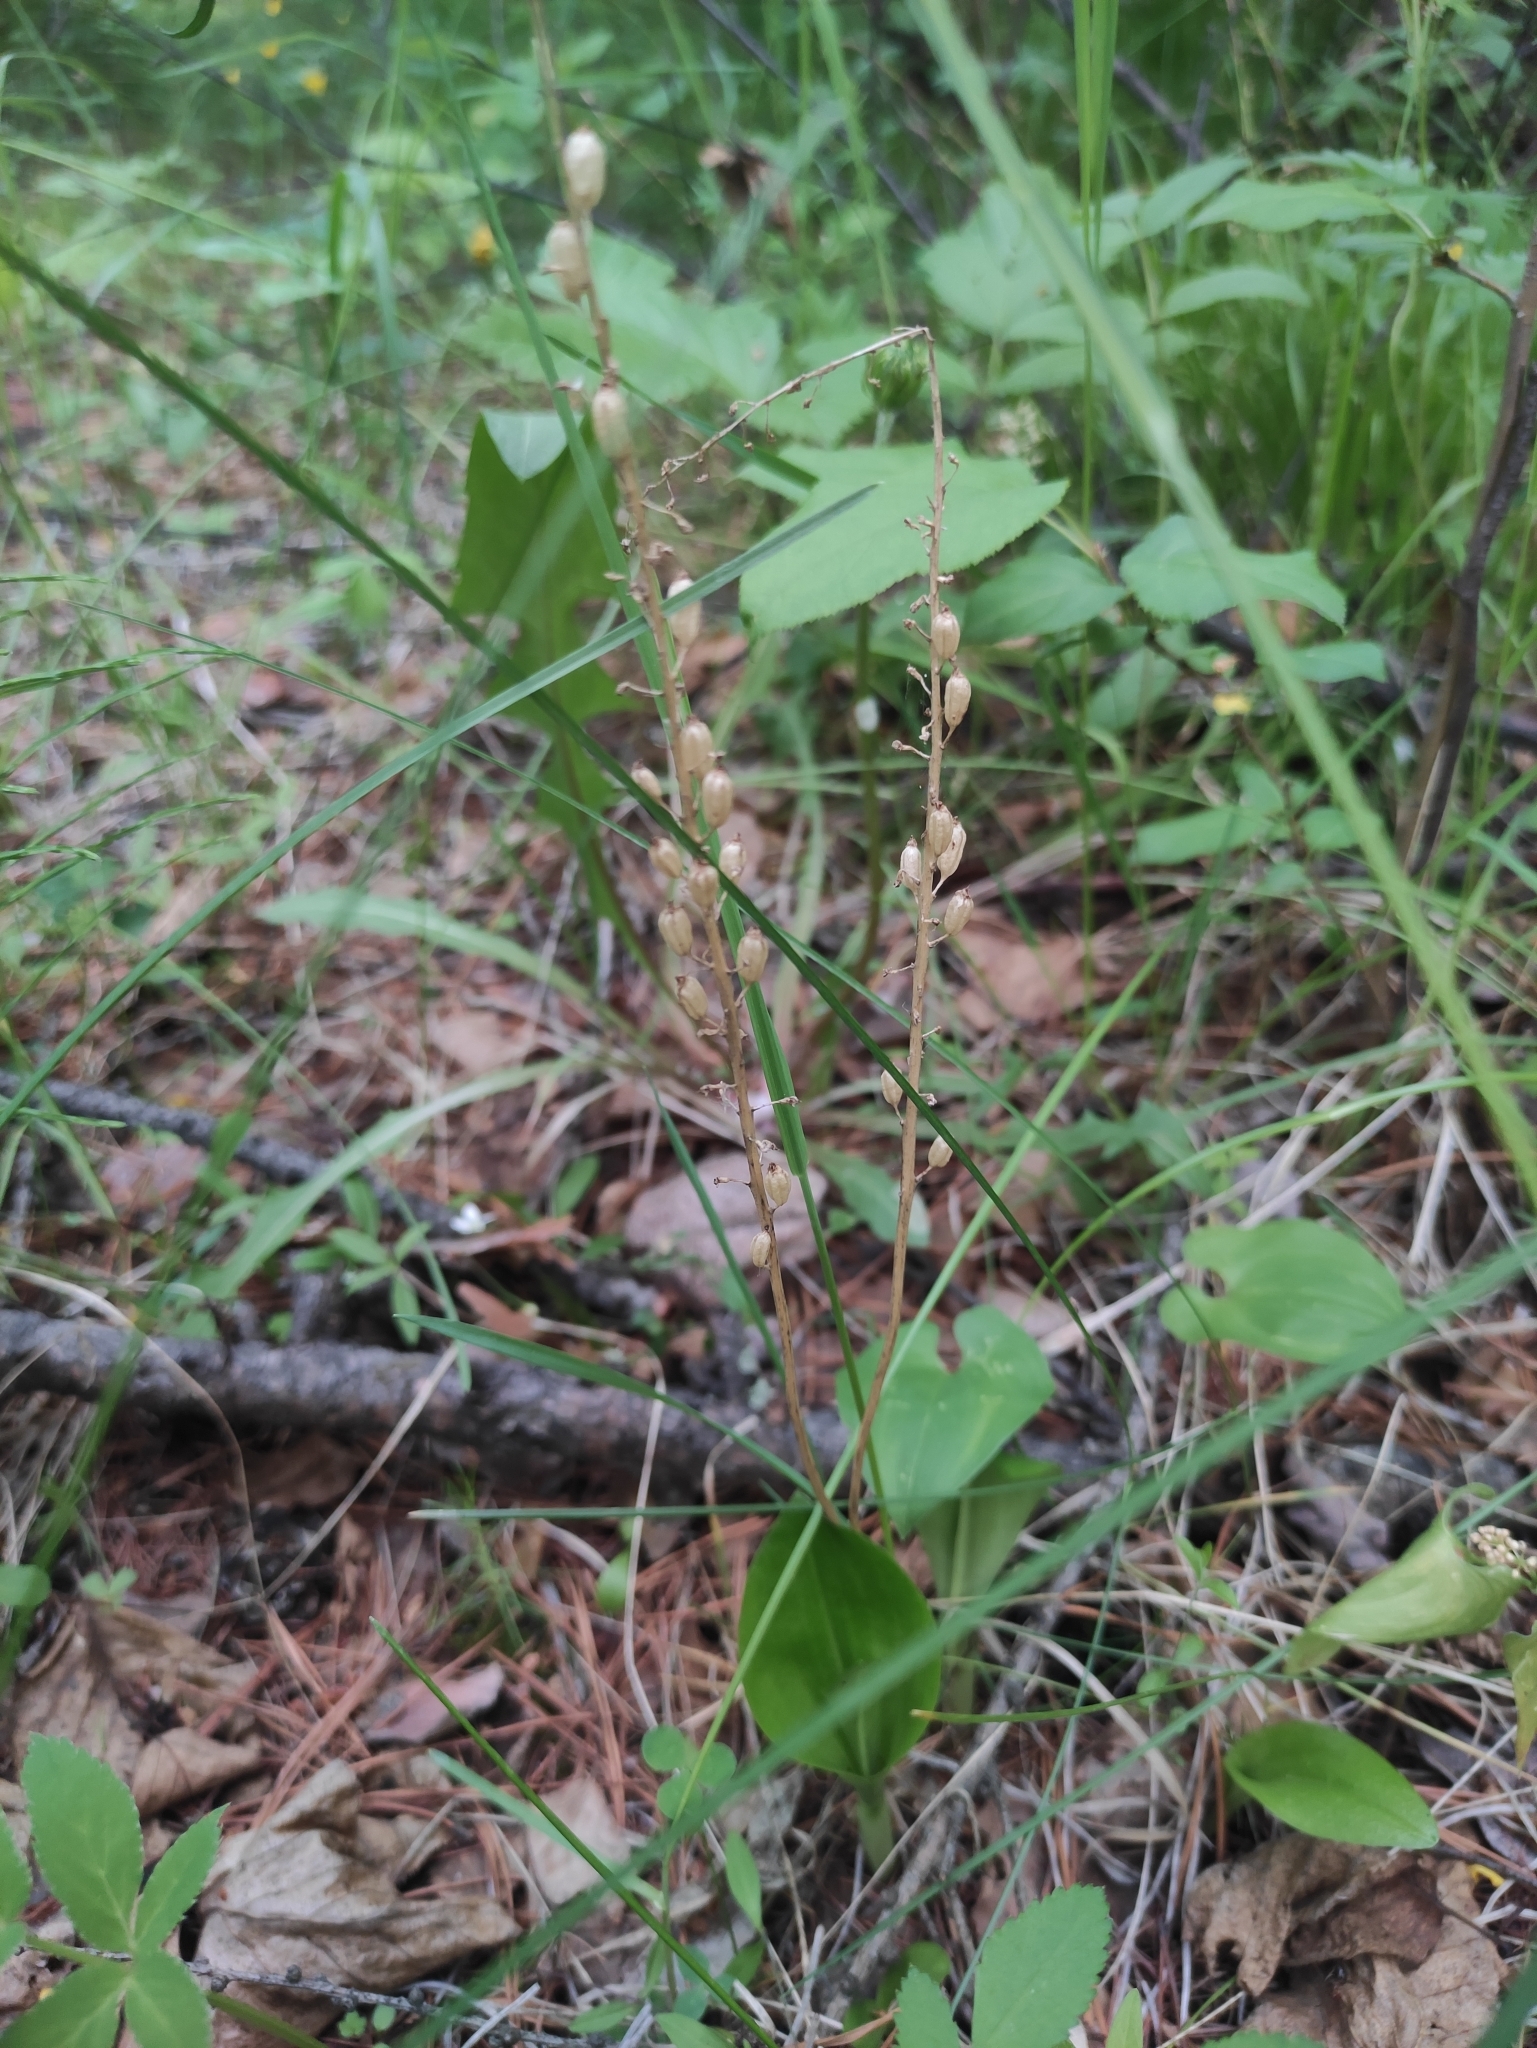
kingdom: Plantae
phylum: Tracheophyta
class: Liliopsida
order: Asparagales
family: Orchidaceae
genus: Malaxis
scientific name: Malaxis monophyllos
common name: White adder's-mouth
